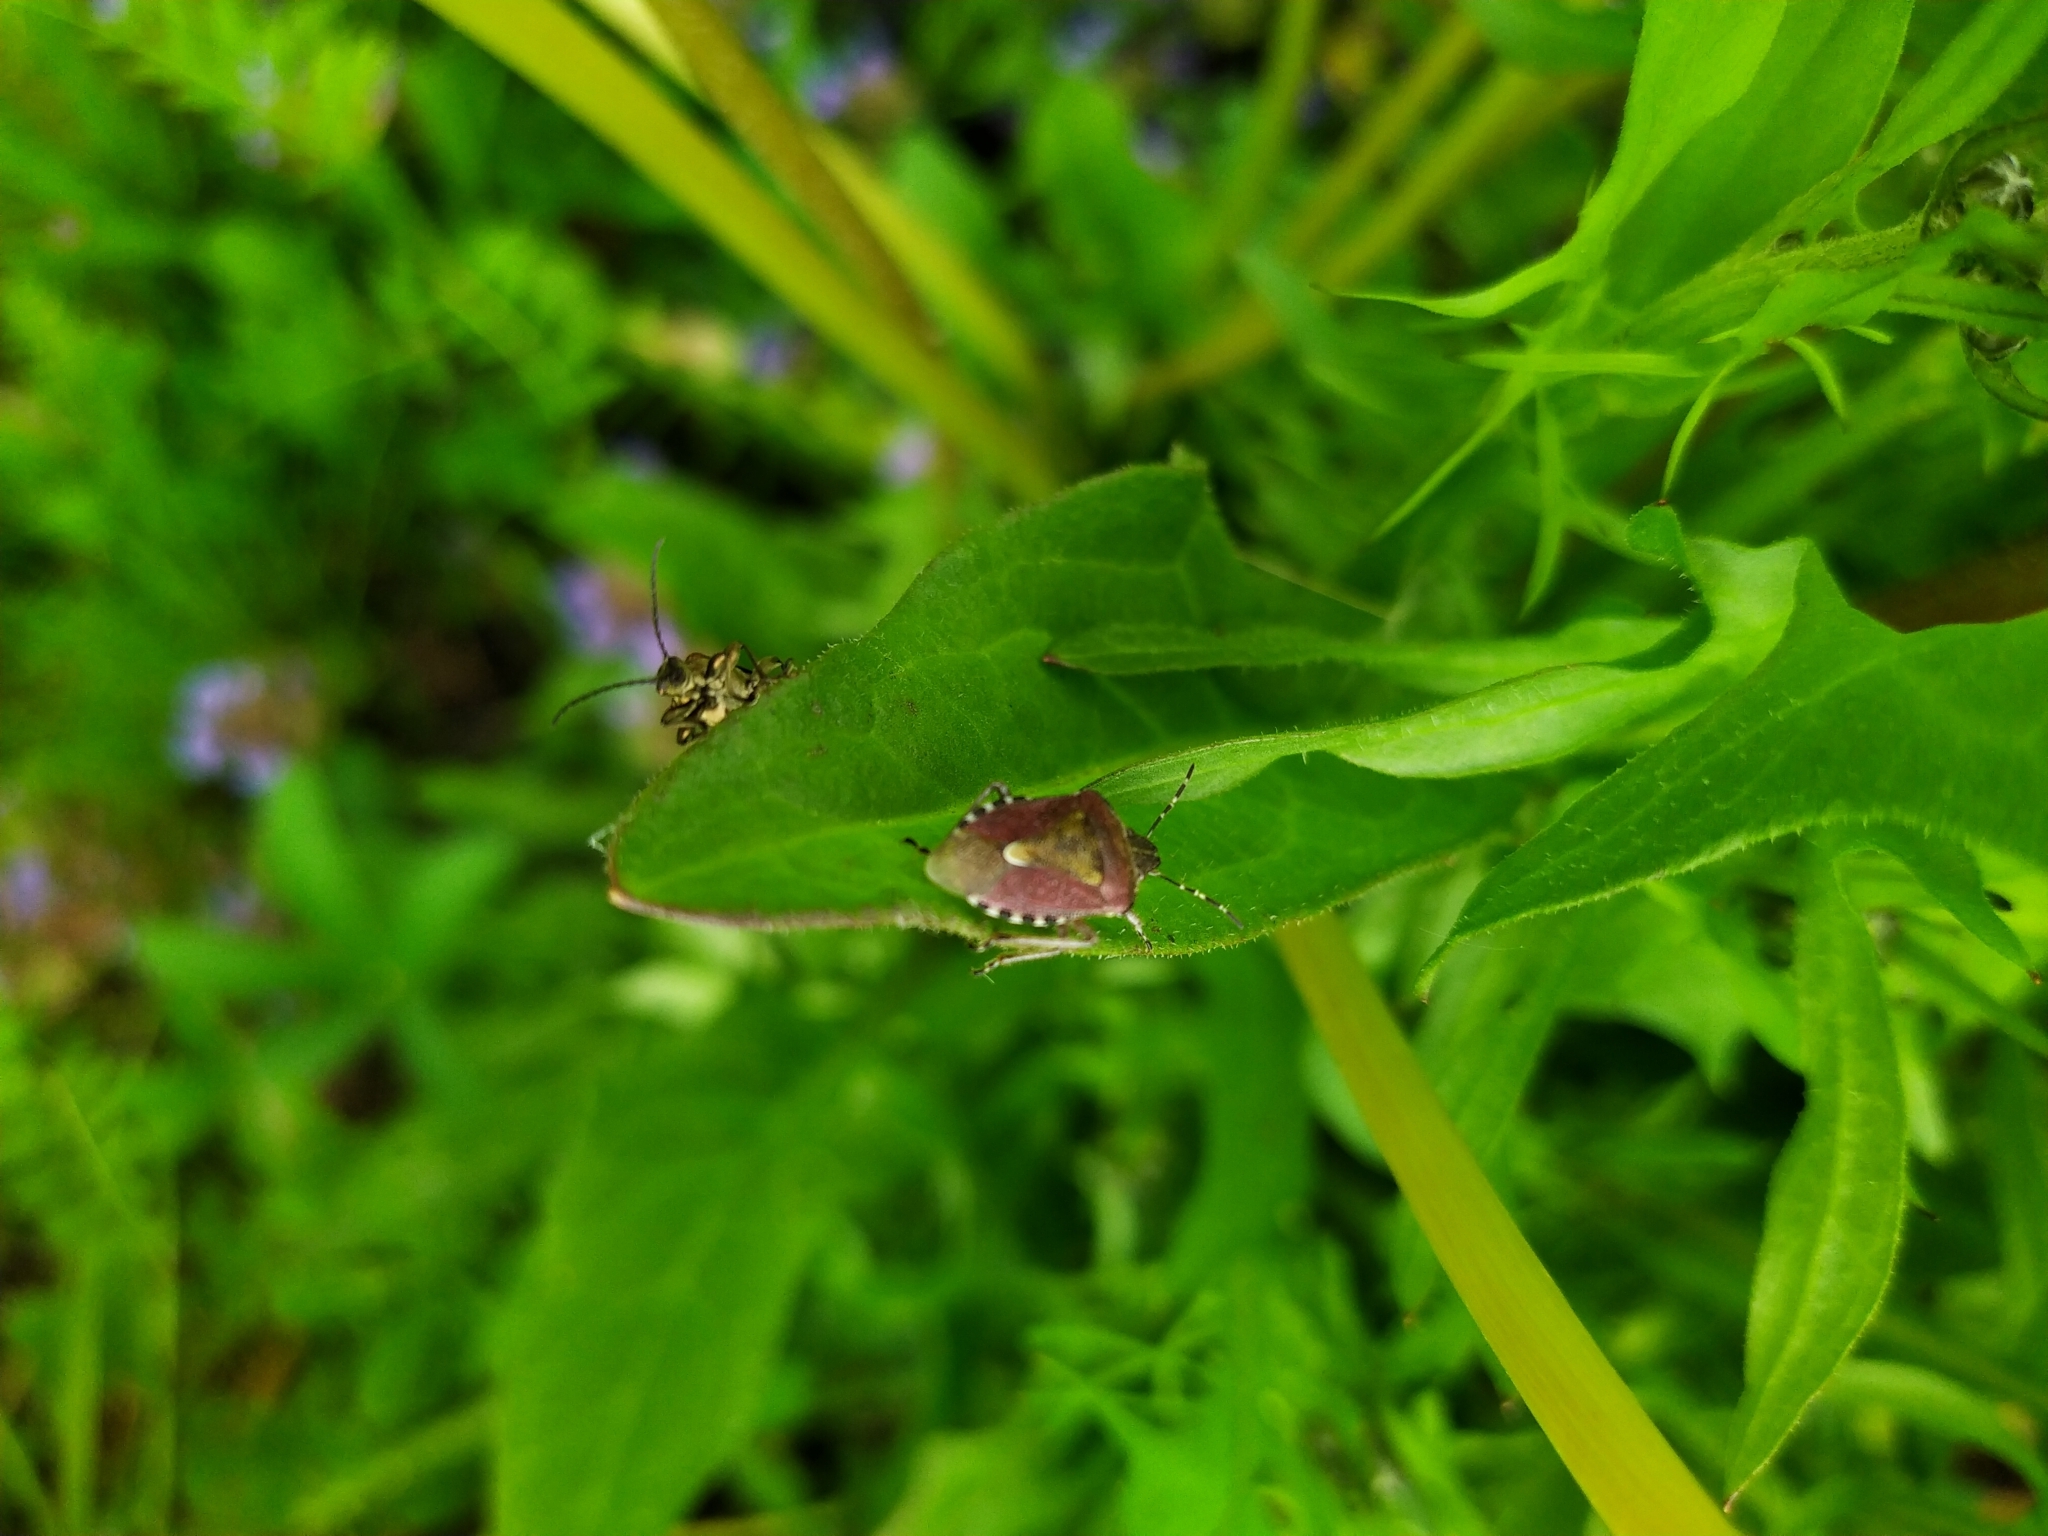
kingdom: Animalia
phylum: Arthropoda
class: Insecta
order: Hemiptera
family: Pentatomidae
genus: Dolycoris
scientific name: Dolycoris baccarum
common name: Sloe bug
